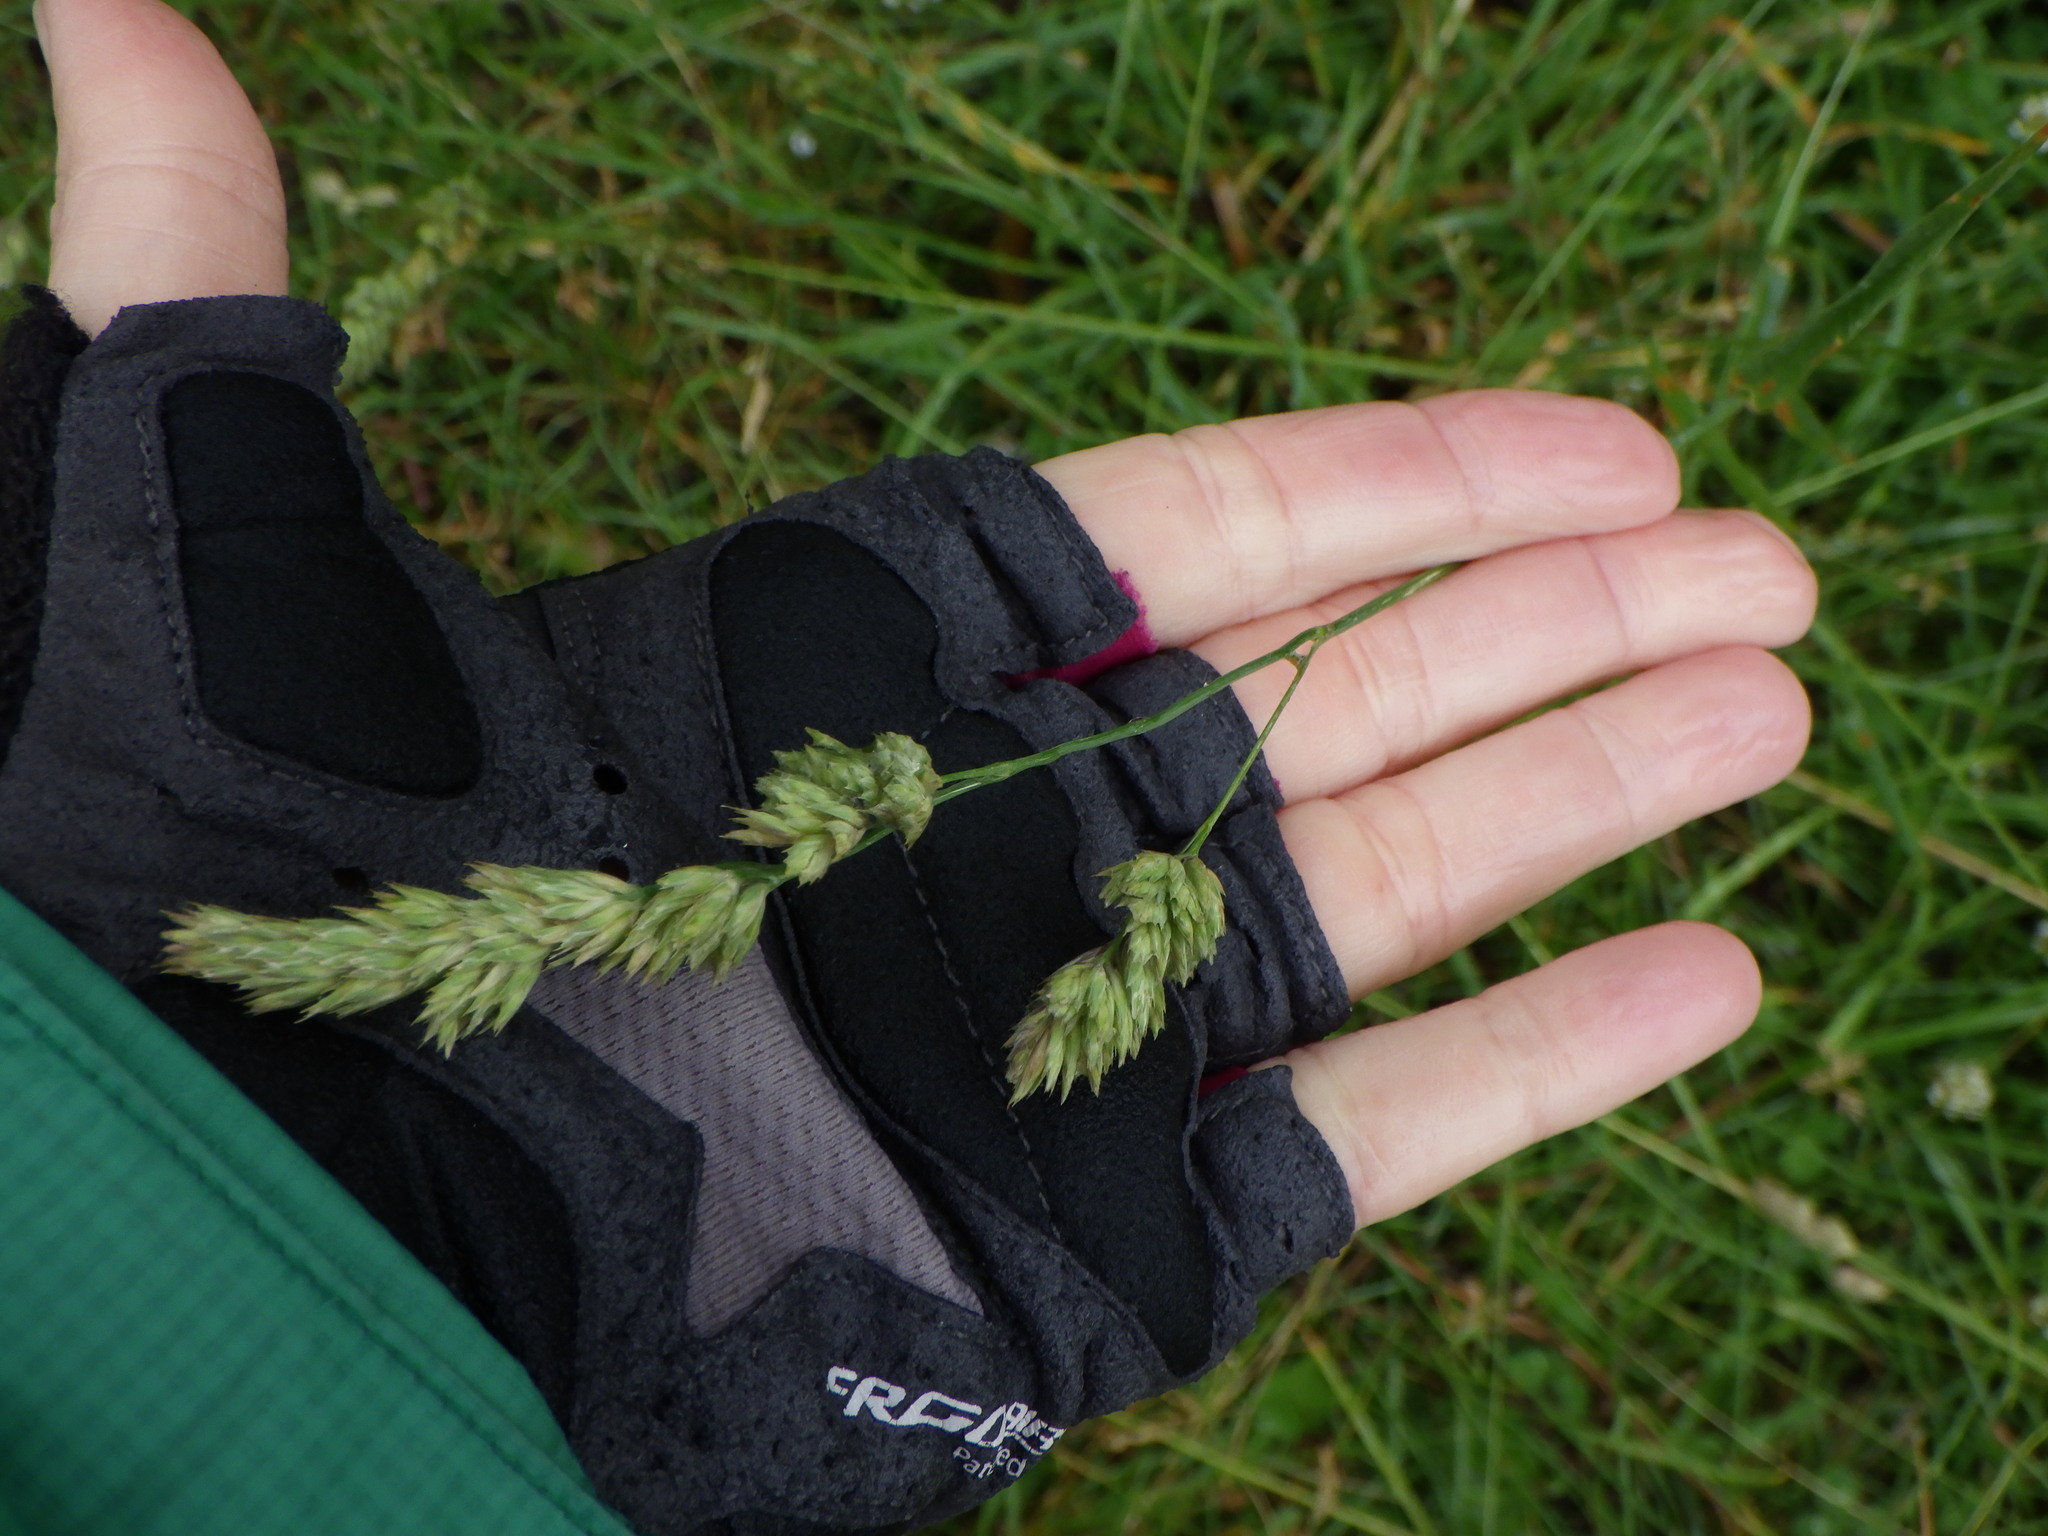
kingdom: Plantae
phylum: Tracheophyta
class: Liliopsida
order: Poales
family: Poaceae
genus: Dactylis
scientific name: Dactylis glomerata
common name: Orchardgrass
